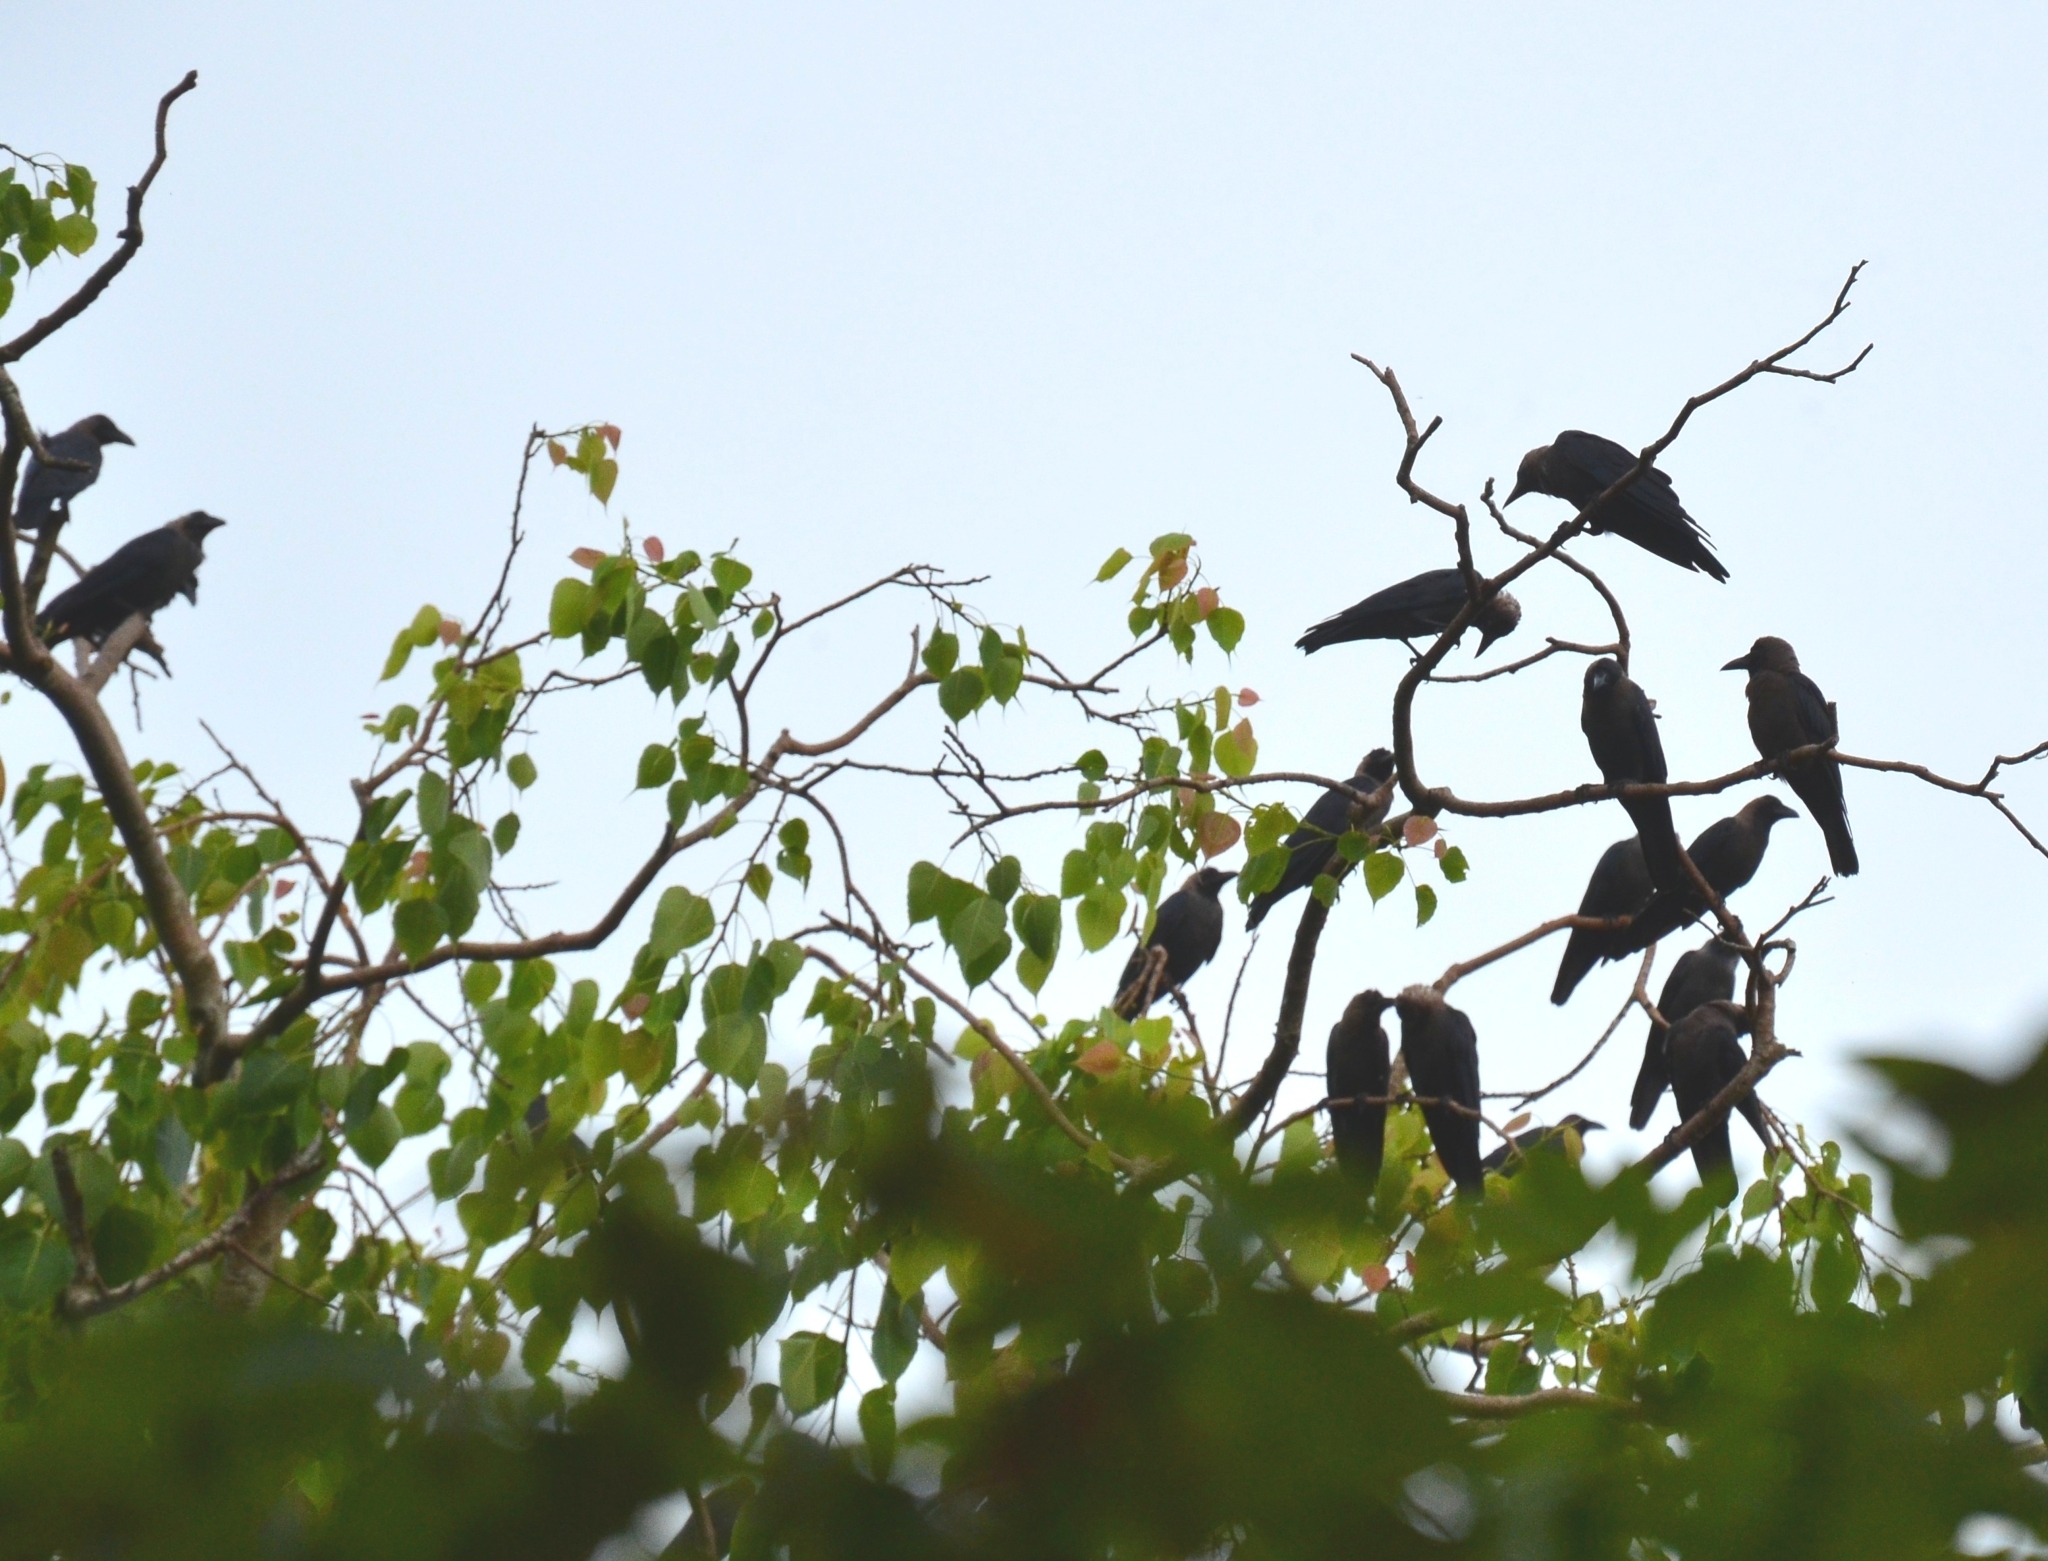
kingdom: Animalia
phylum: Chordata
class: Aves
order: Passeriformes
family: Corvidae
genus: Corvus
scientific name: Corvus splendens
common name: House crow
